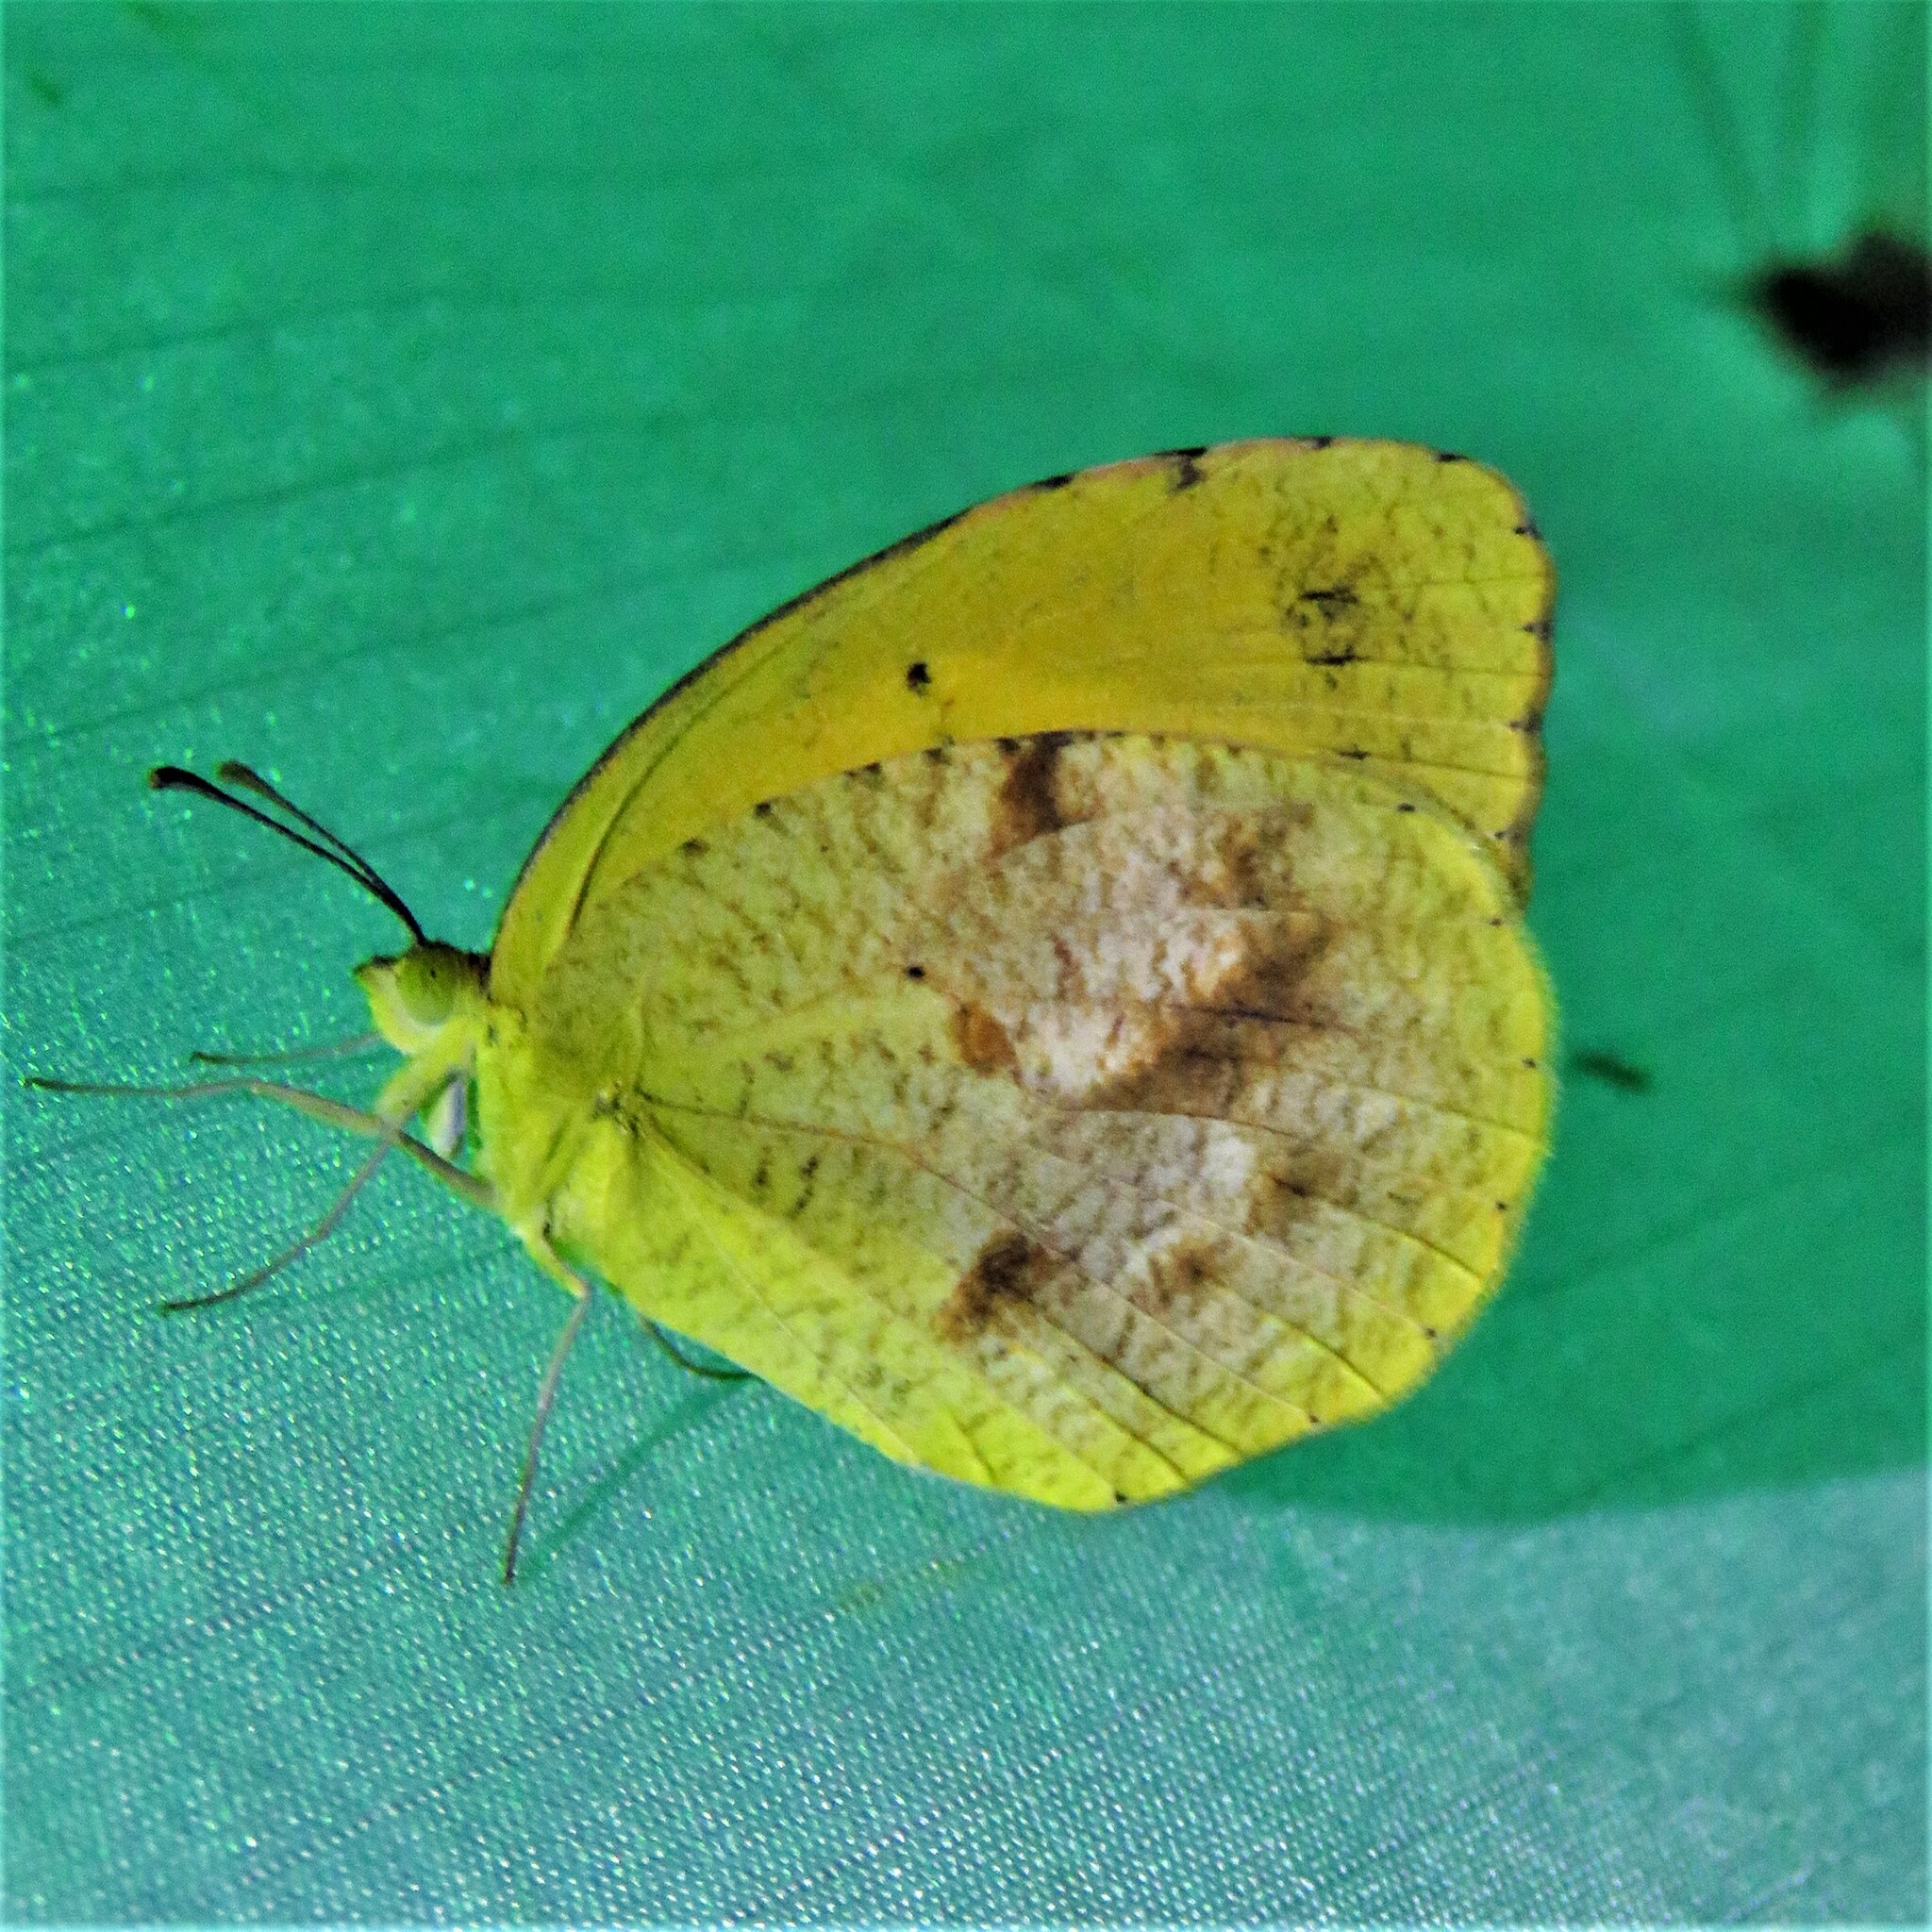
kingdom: Animalia
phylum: Arthropoda
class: Insecta
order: Lepidoptera
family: Pieridae
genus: Abaeis
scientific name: Abaeis nicippe
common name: Sleepy orange
